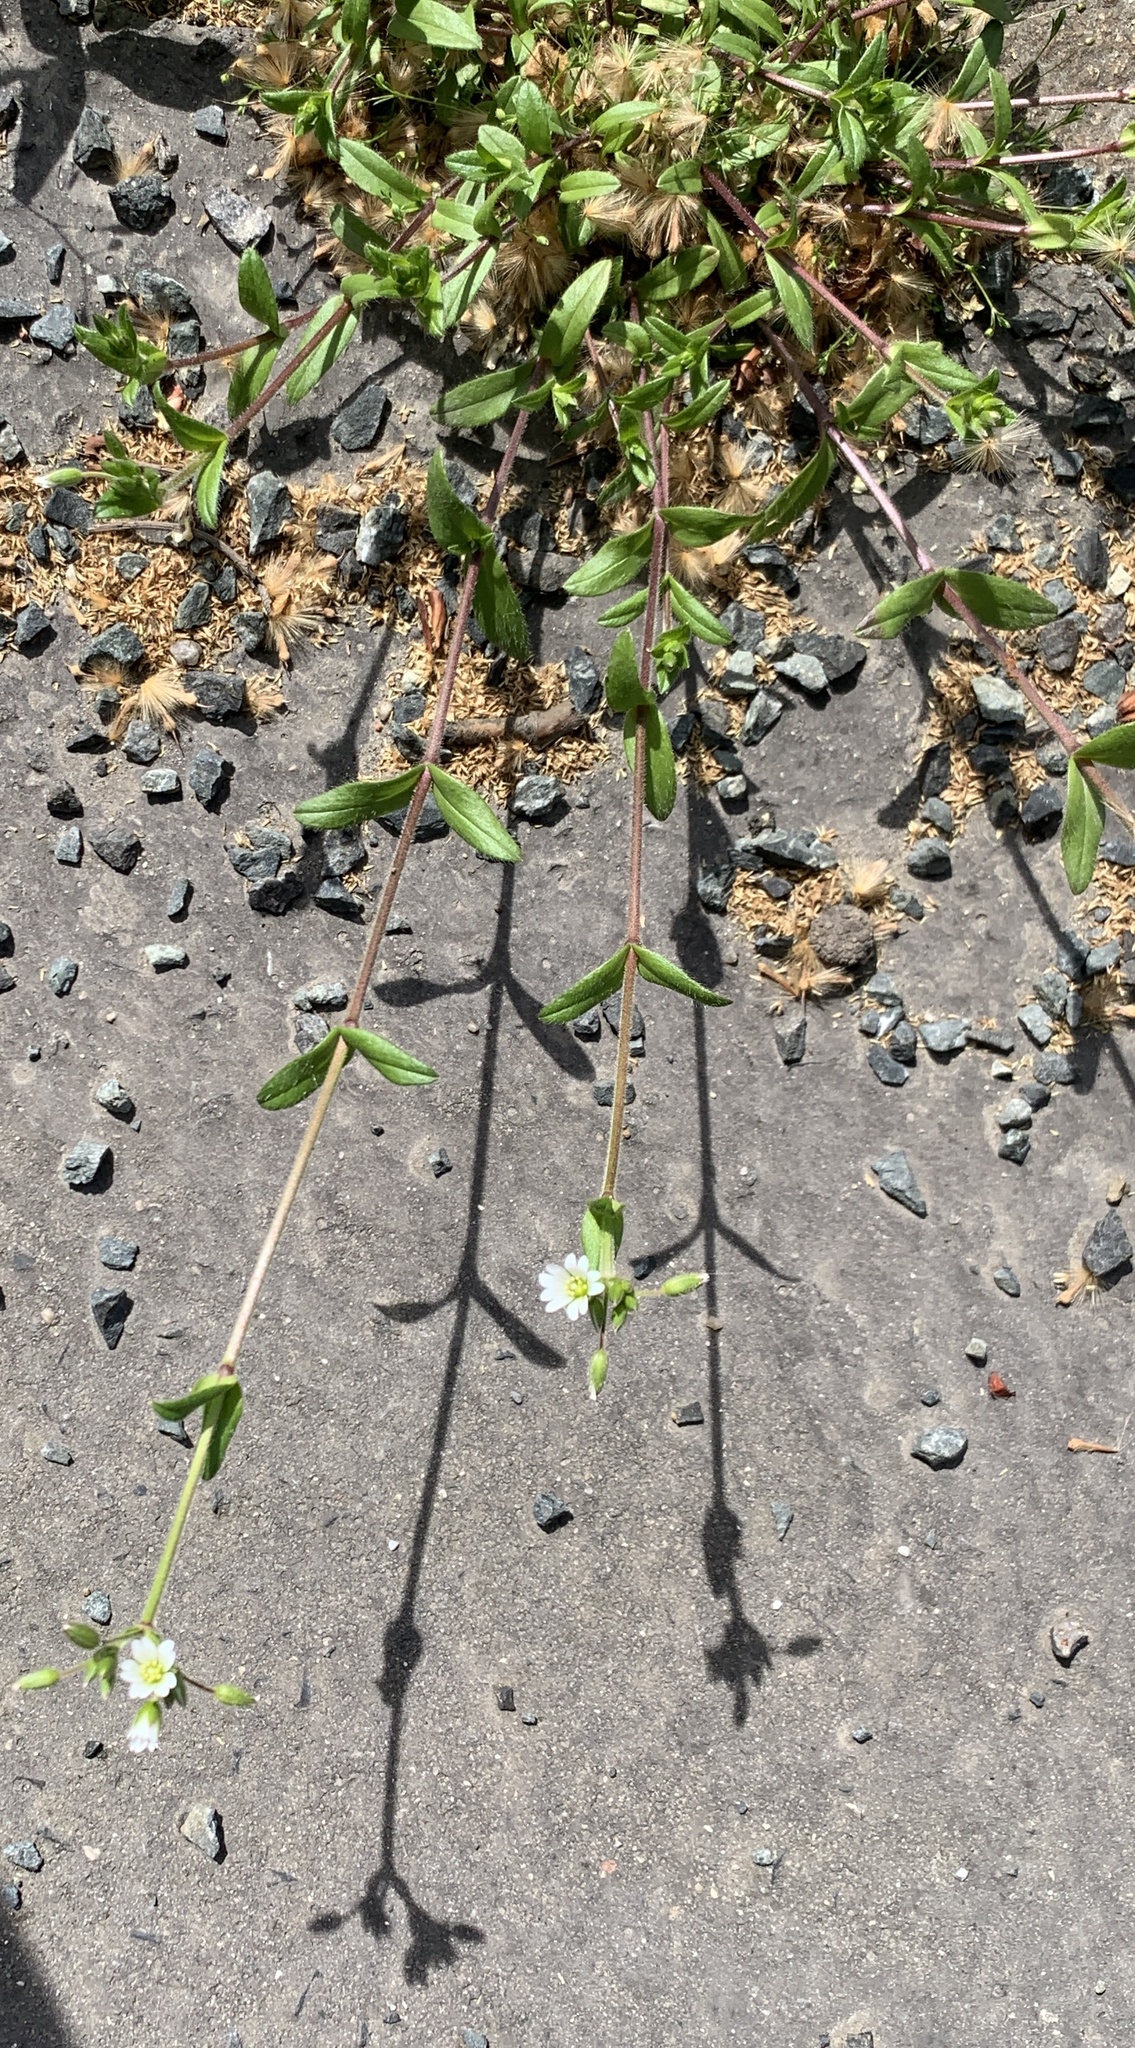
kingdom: Plantae
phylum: Tracheophyta
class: Magnoliopsida
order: Caryophyllales
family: Caryophyllaceae
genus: Cerastium
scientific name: Cerastium holosteoides
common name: Big chickweed
